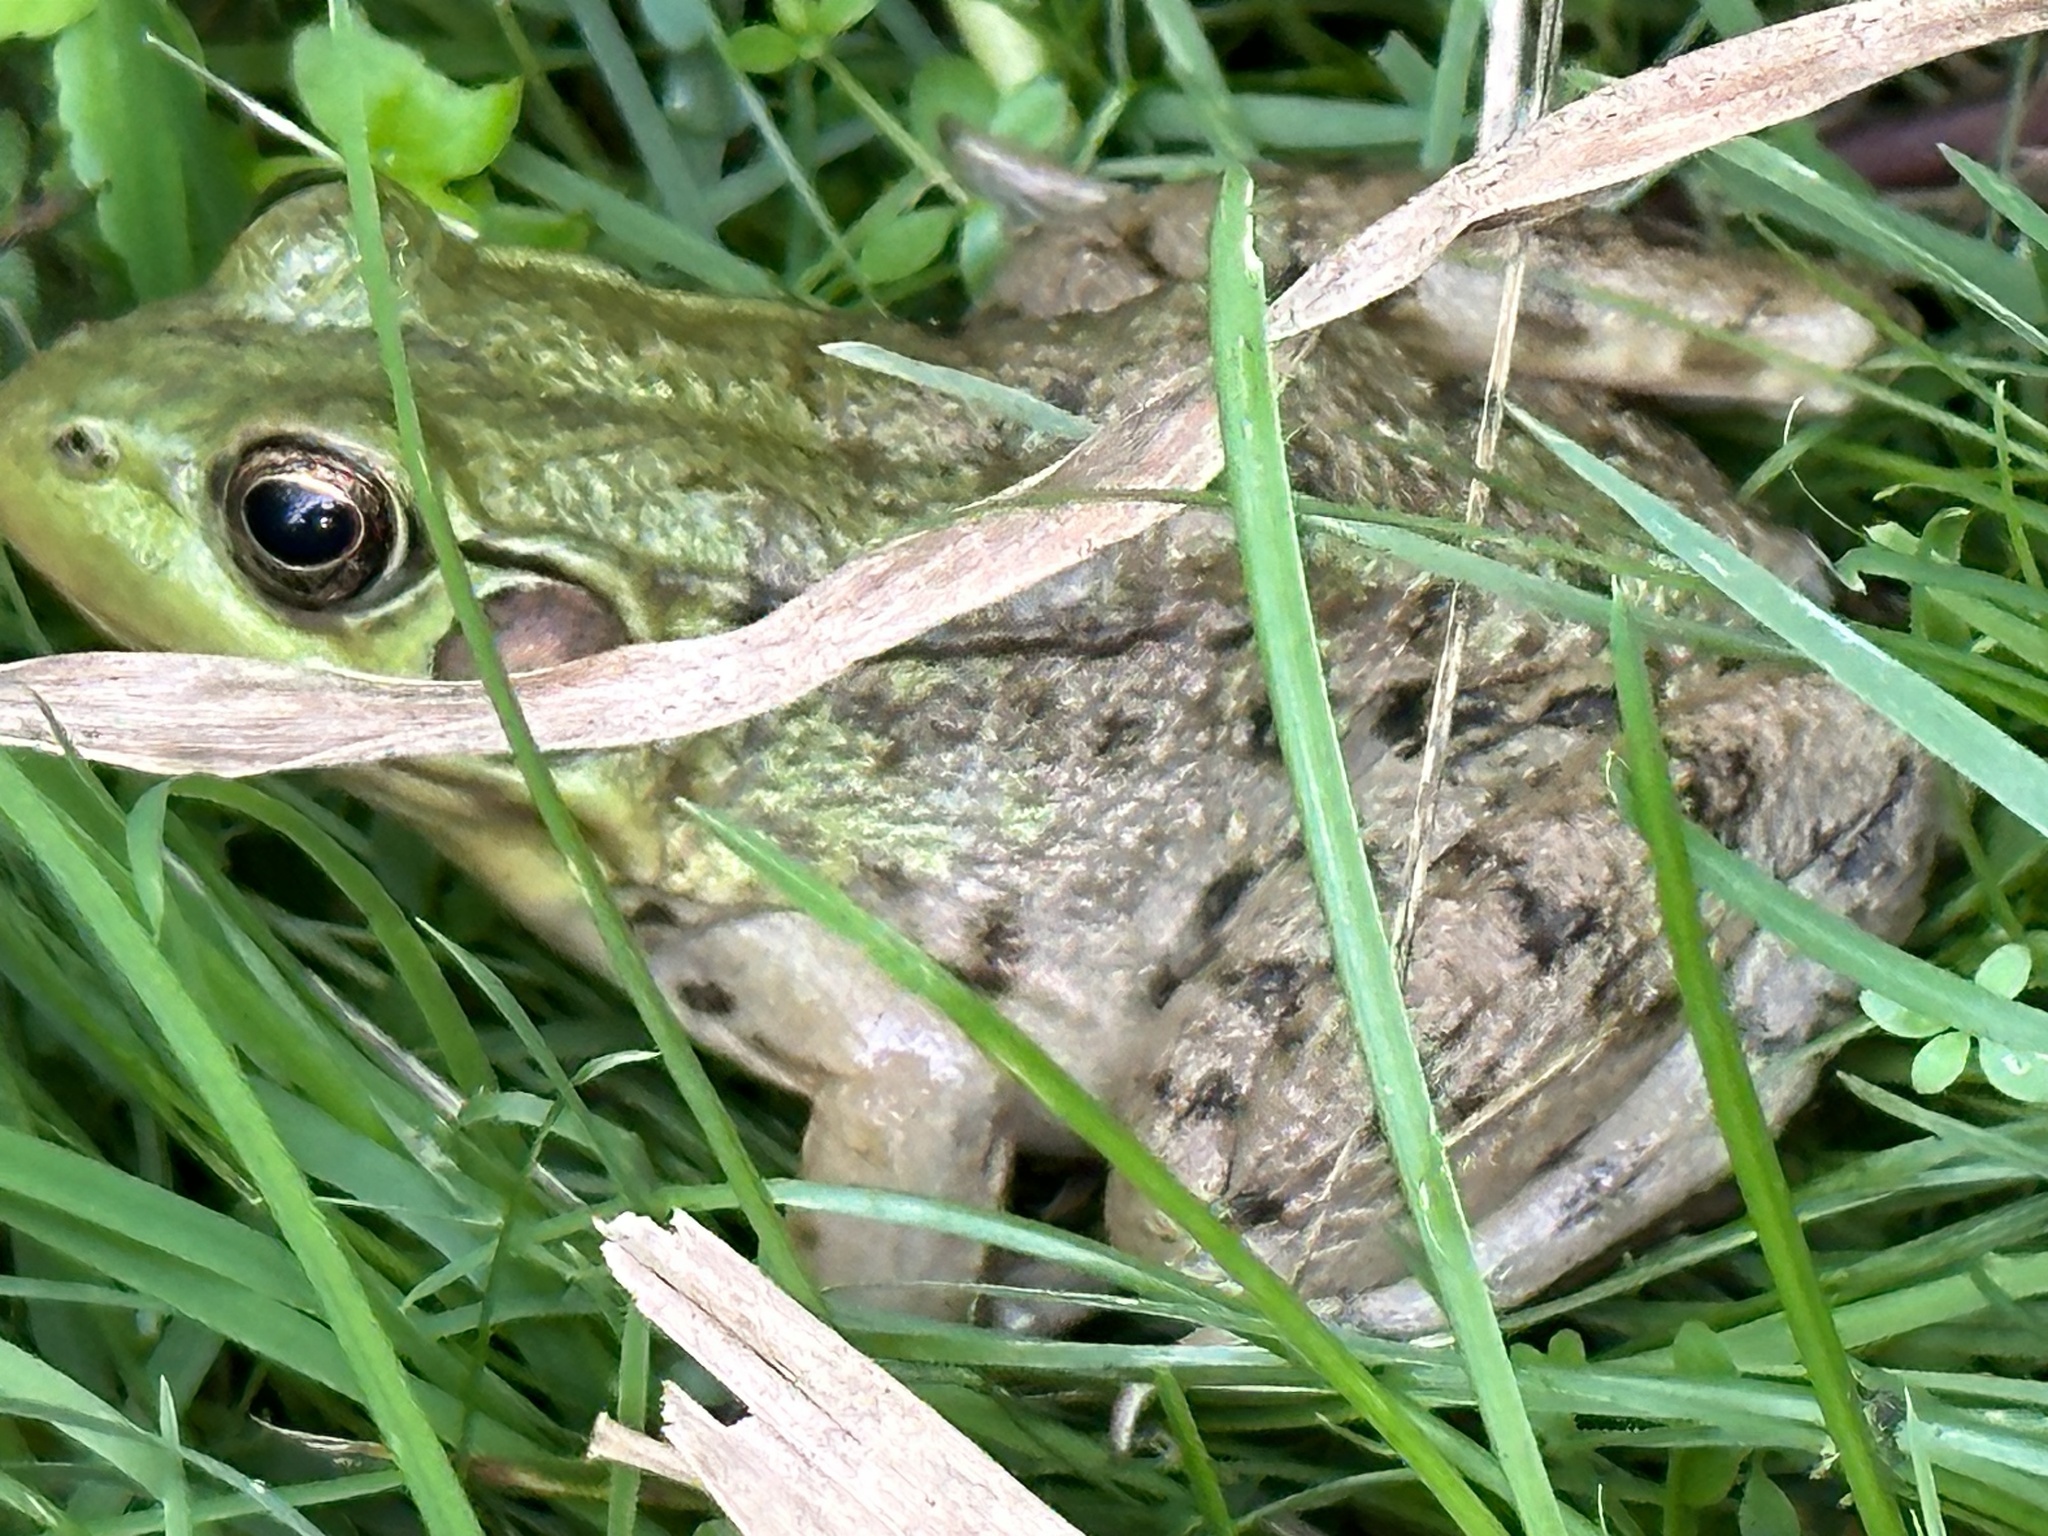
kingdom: Animalia
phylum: Chordata
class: Amphibia
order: Anura
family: Ranidae
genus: Lithobates
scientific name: Lithobates clamitans
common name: Green frog
